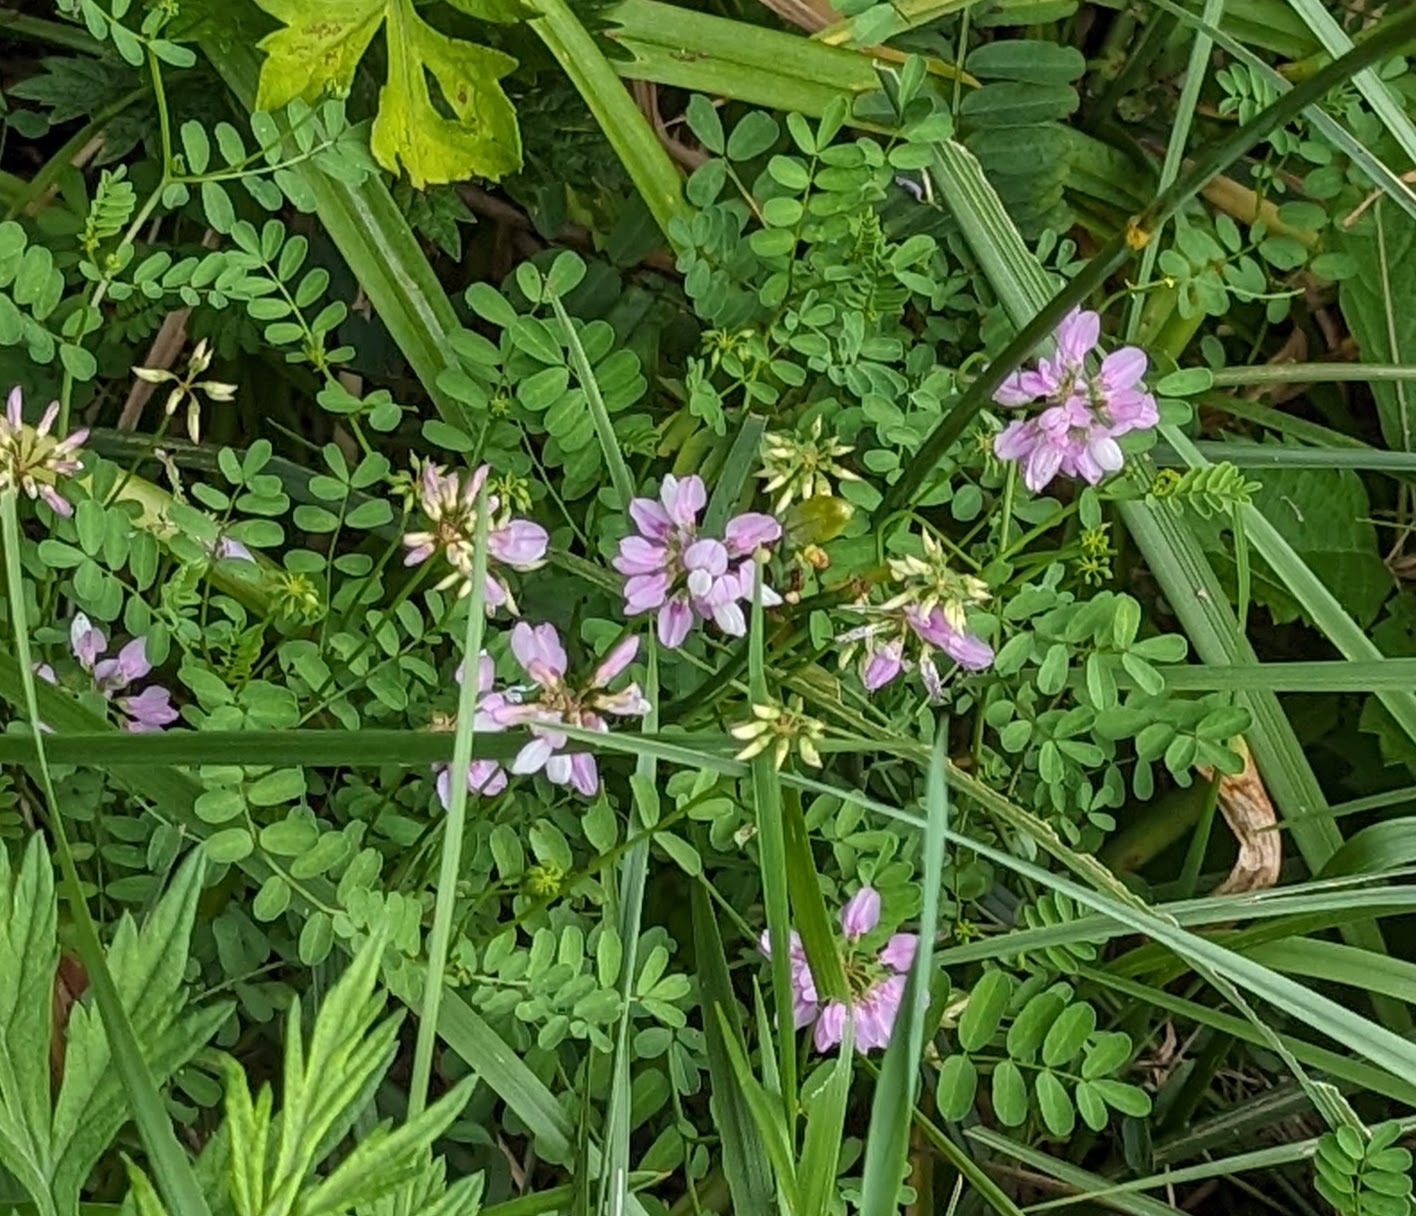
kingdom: Plantae
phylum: Tracheophyta
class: Magnoliopsida
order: Fabales
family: Fabaceae
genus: Coronilla
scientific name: Coronilla varia
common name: Crownvetch
